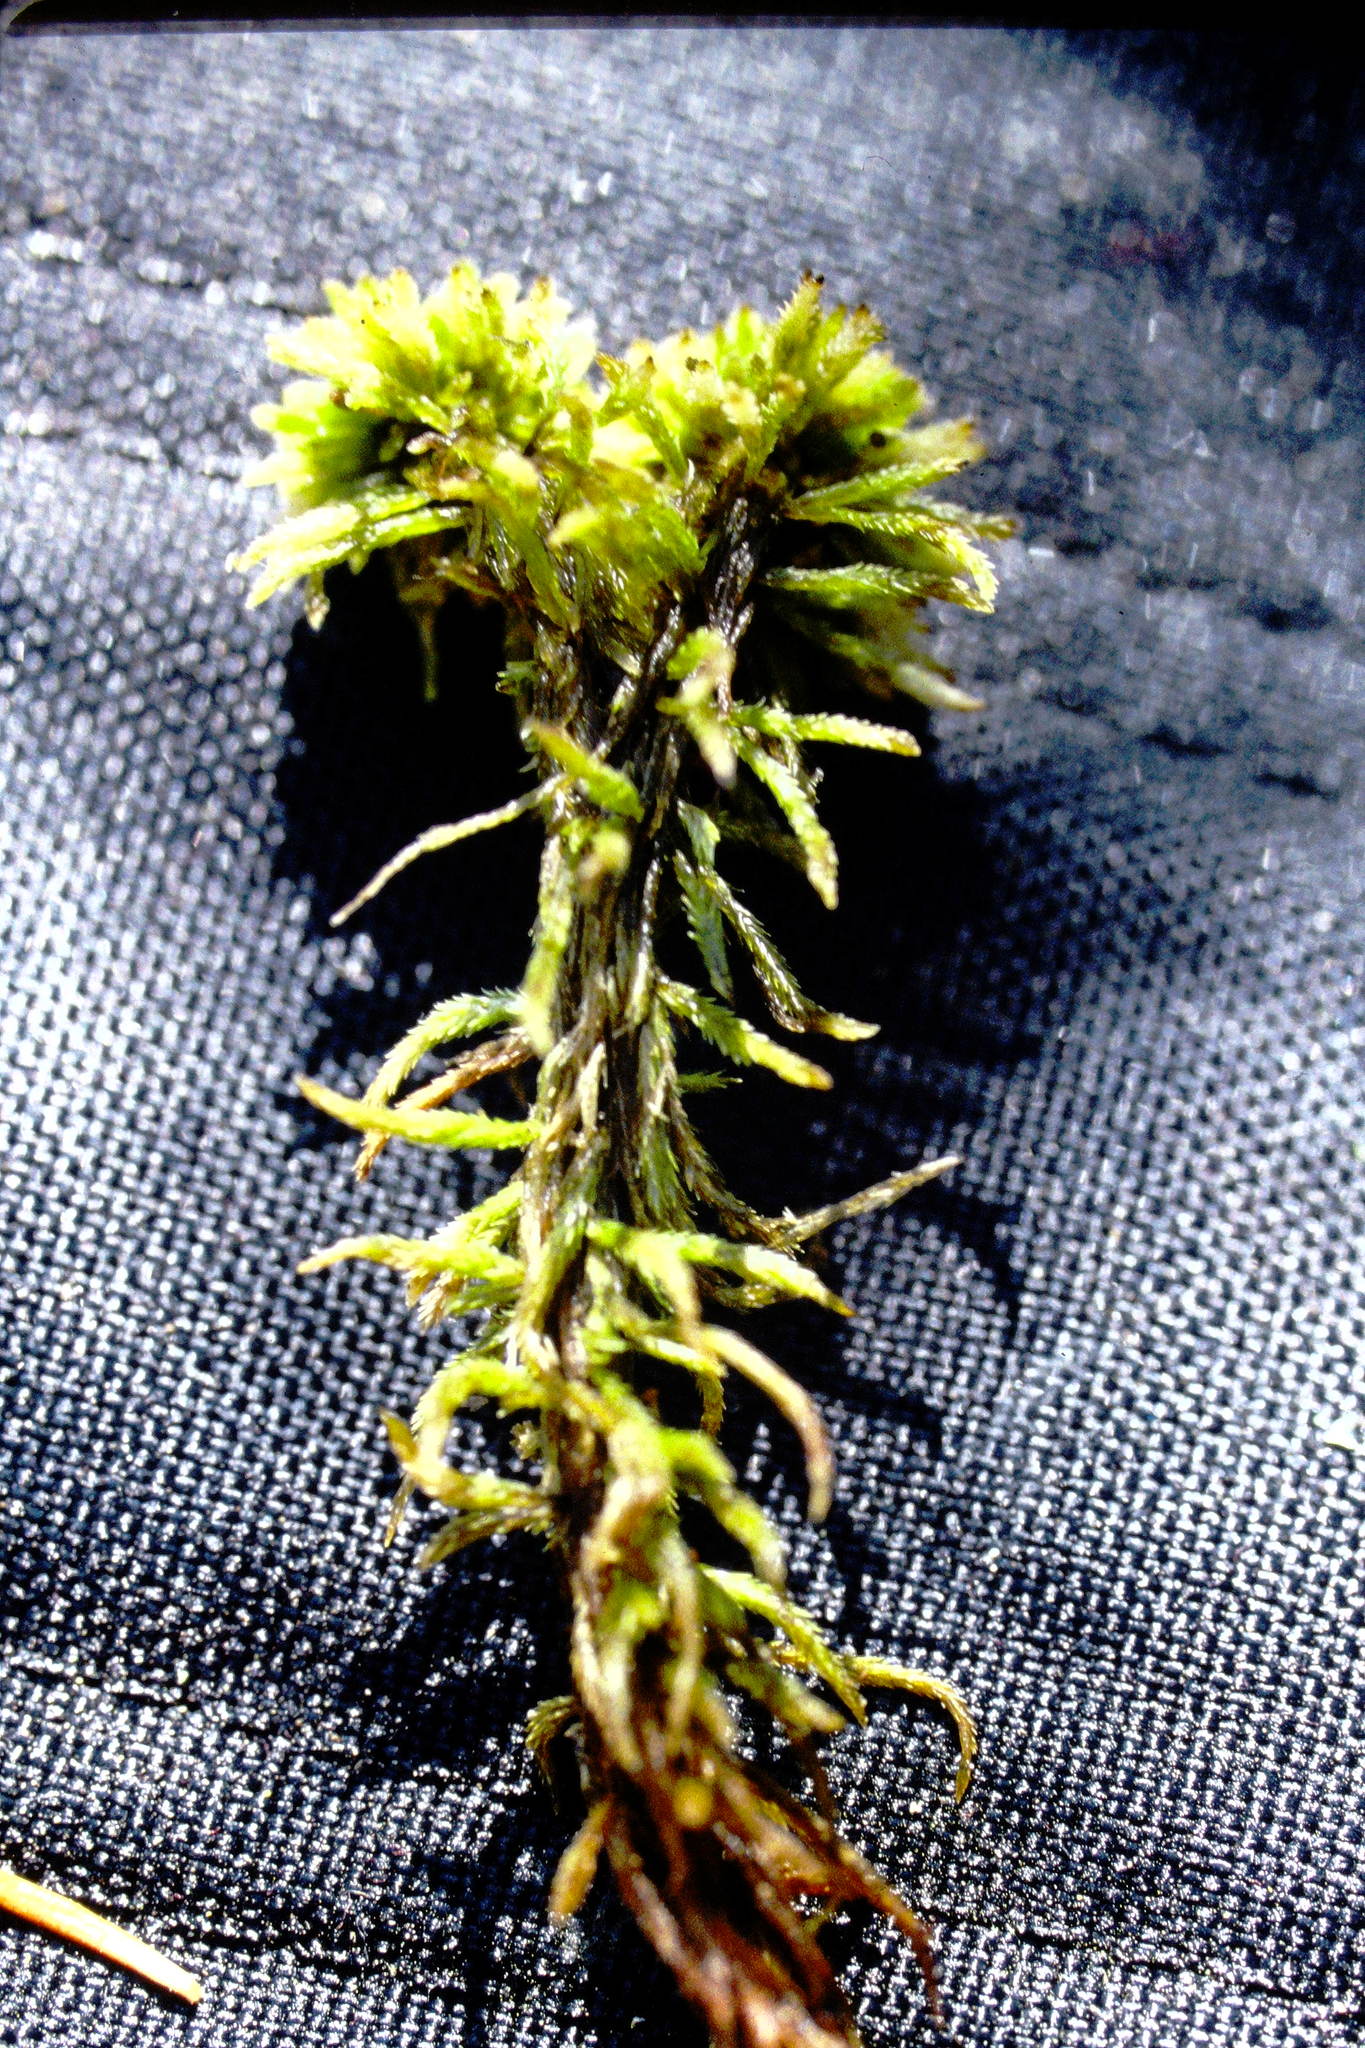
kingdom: Plantae
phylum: Bryophyta
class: Sphagnopsida
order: Sphagnales
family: Sphagnaceae
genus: Sphagnum
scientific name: Sphagnum wulfianum
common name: Wulf's peat moss
